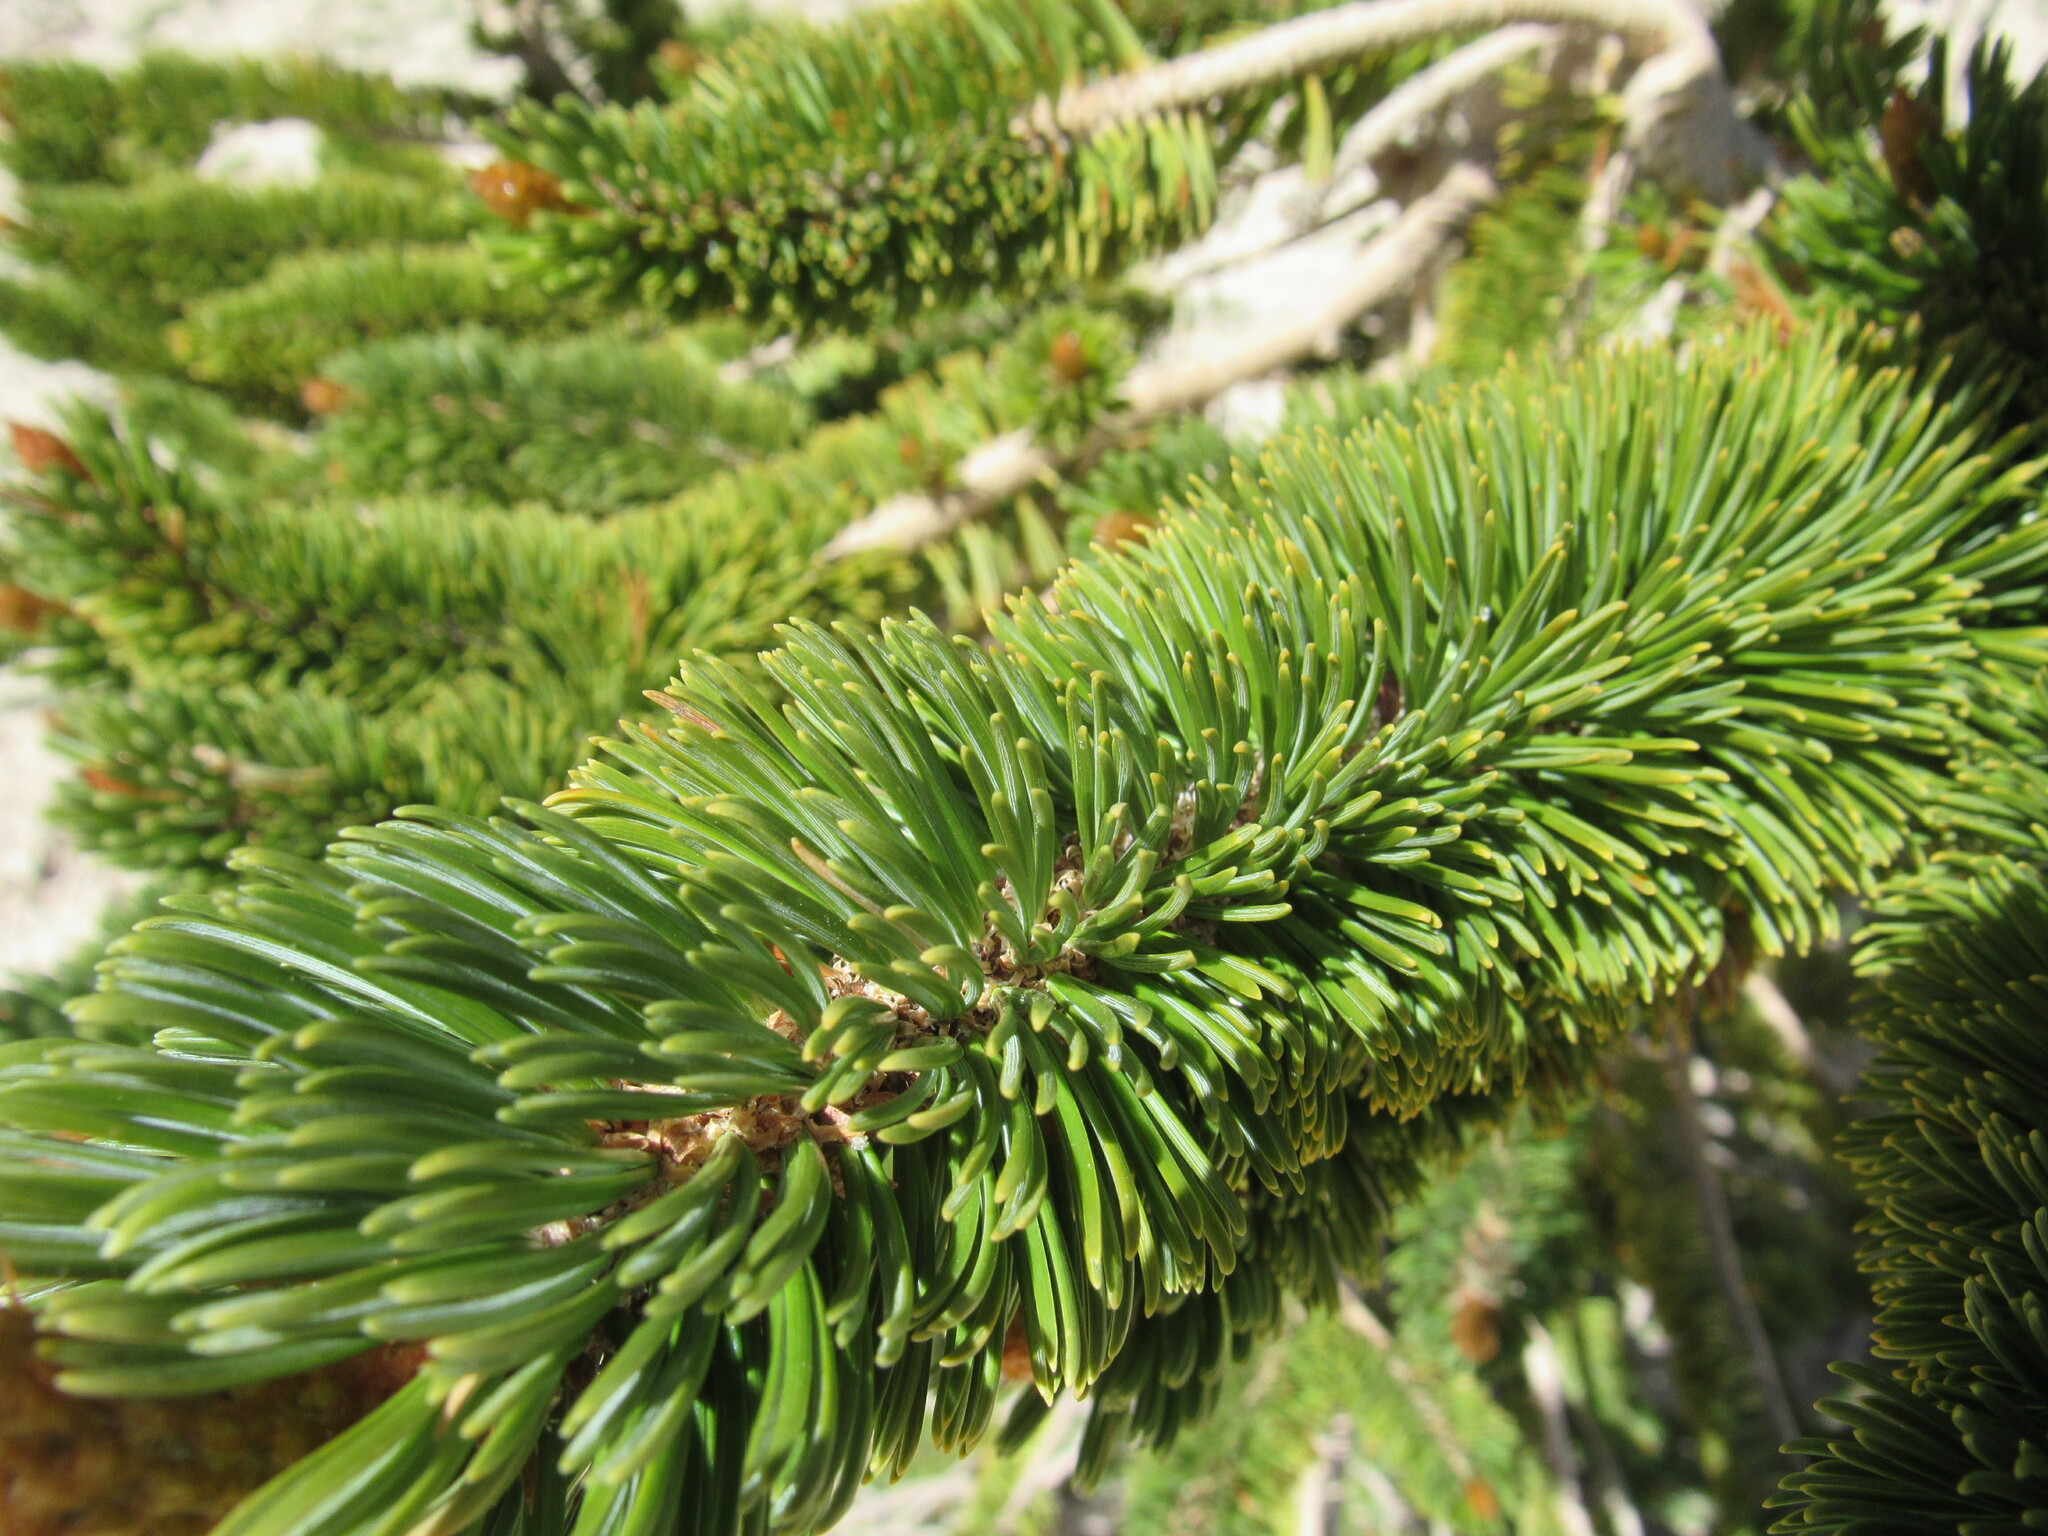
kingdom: Plantae
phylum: Tracheophyta
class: Pinopsida
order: Pinales
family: Pinaceae
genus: Pinus
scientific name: Pinus longaeva
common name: Intermountain bristlecone pine
